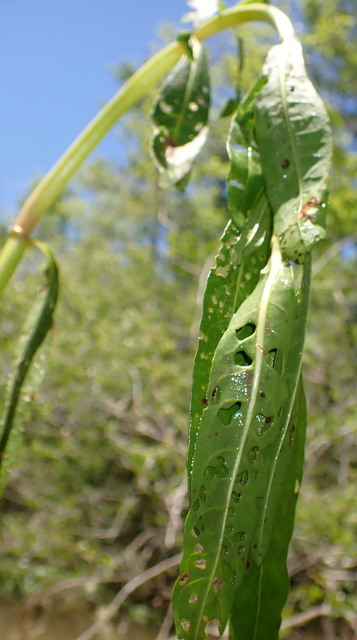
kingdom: Animalia
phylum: Arthropoda
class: Insecta
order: Coleoptera
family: Chrysomelidae
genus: Agasicles
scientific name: Agasicles hygrophila
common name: Alligatorweed flea beetle
